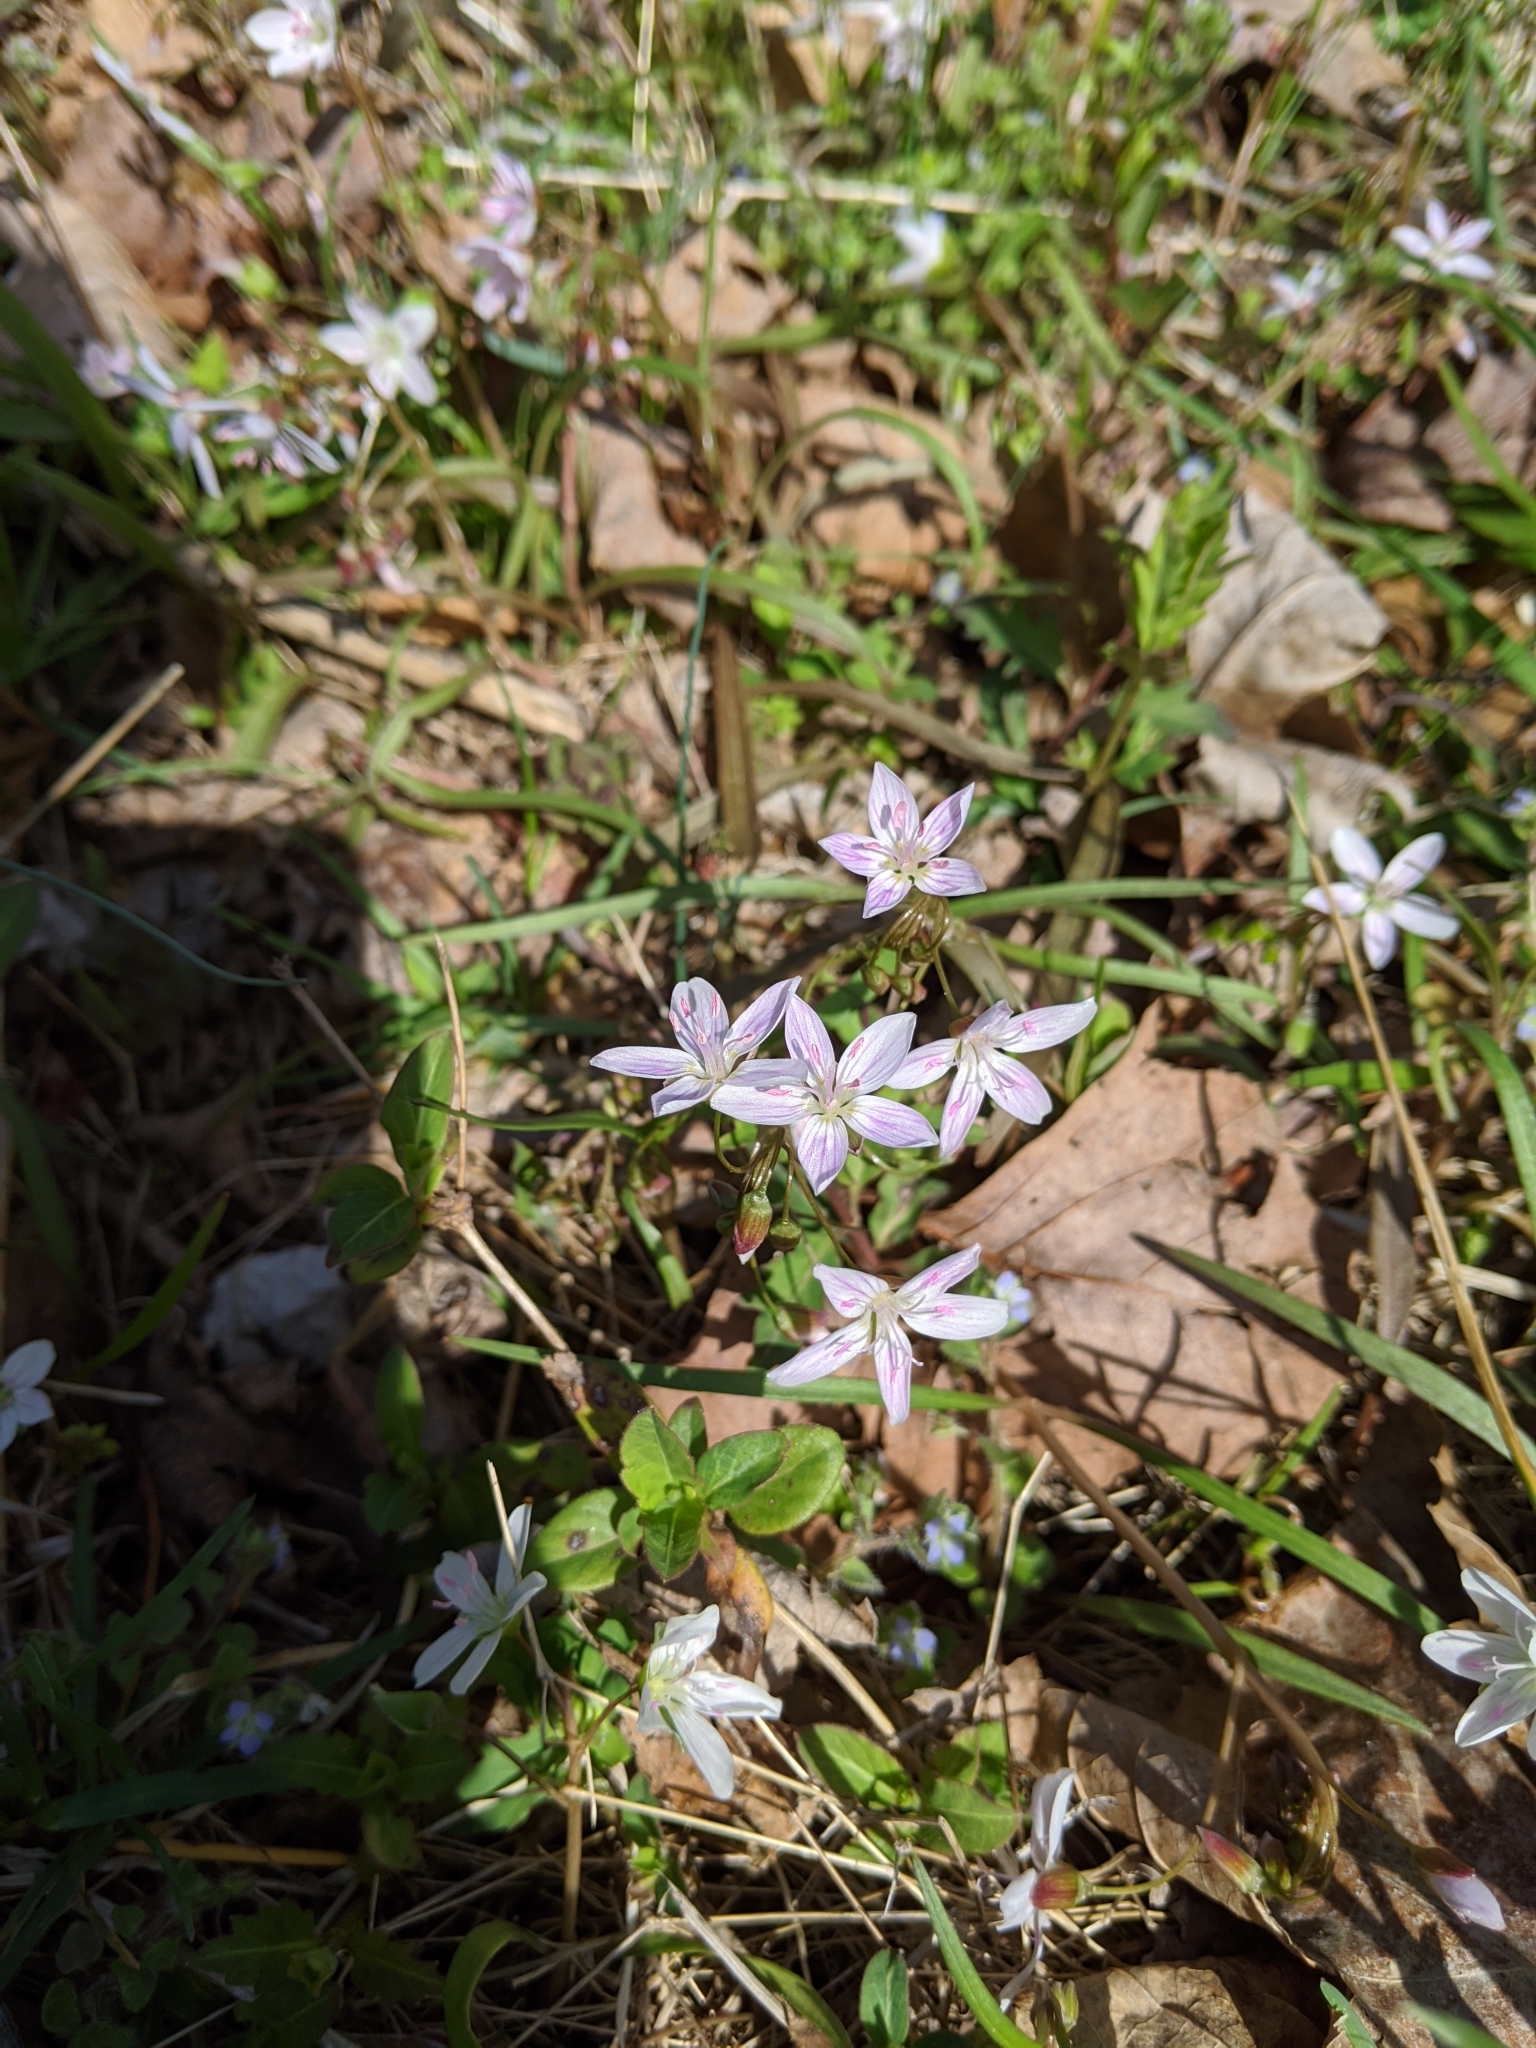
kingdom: Plantae
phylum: Tracheophyta
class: Magnoliopsida
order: Caryophyllales
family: Montiaceae
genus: Claytonia
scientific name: Claytonia virginica
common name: Virginia springbeauty
